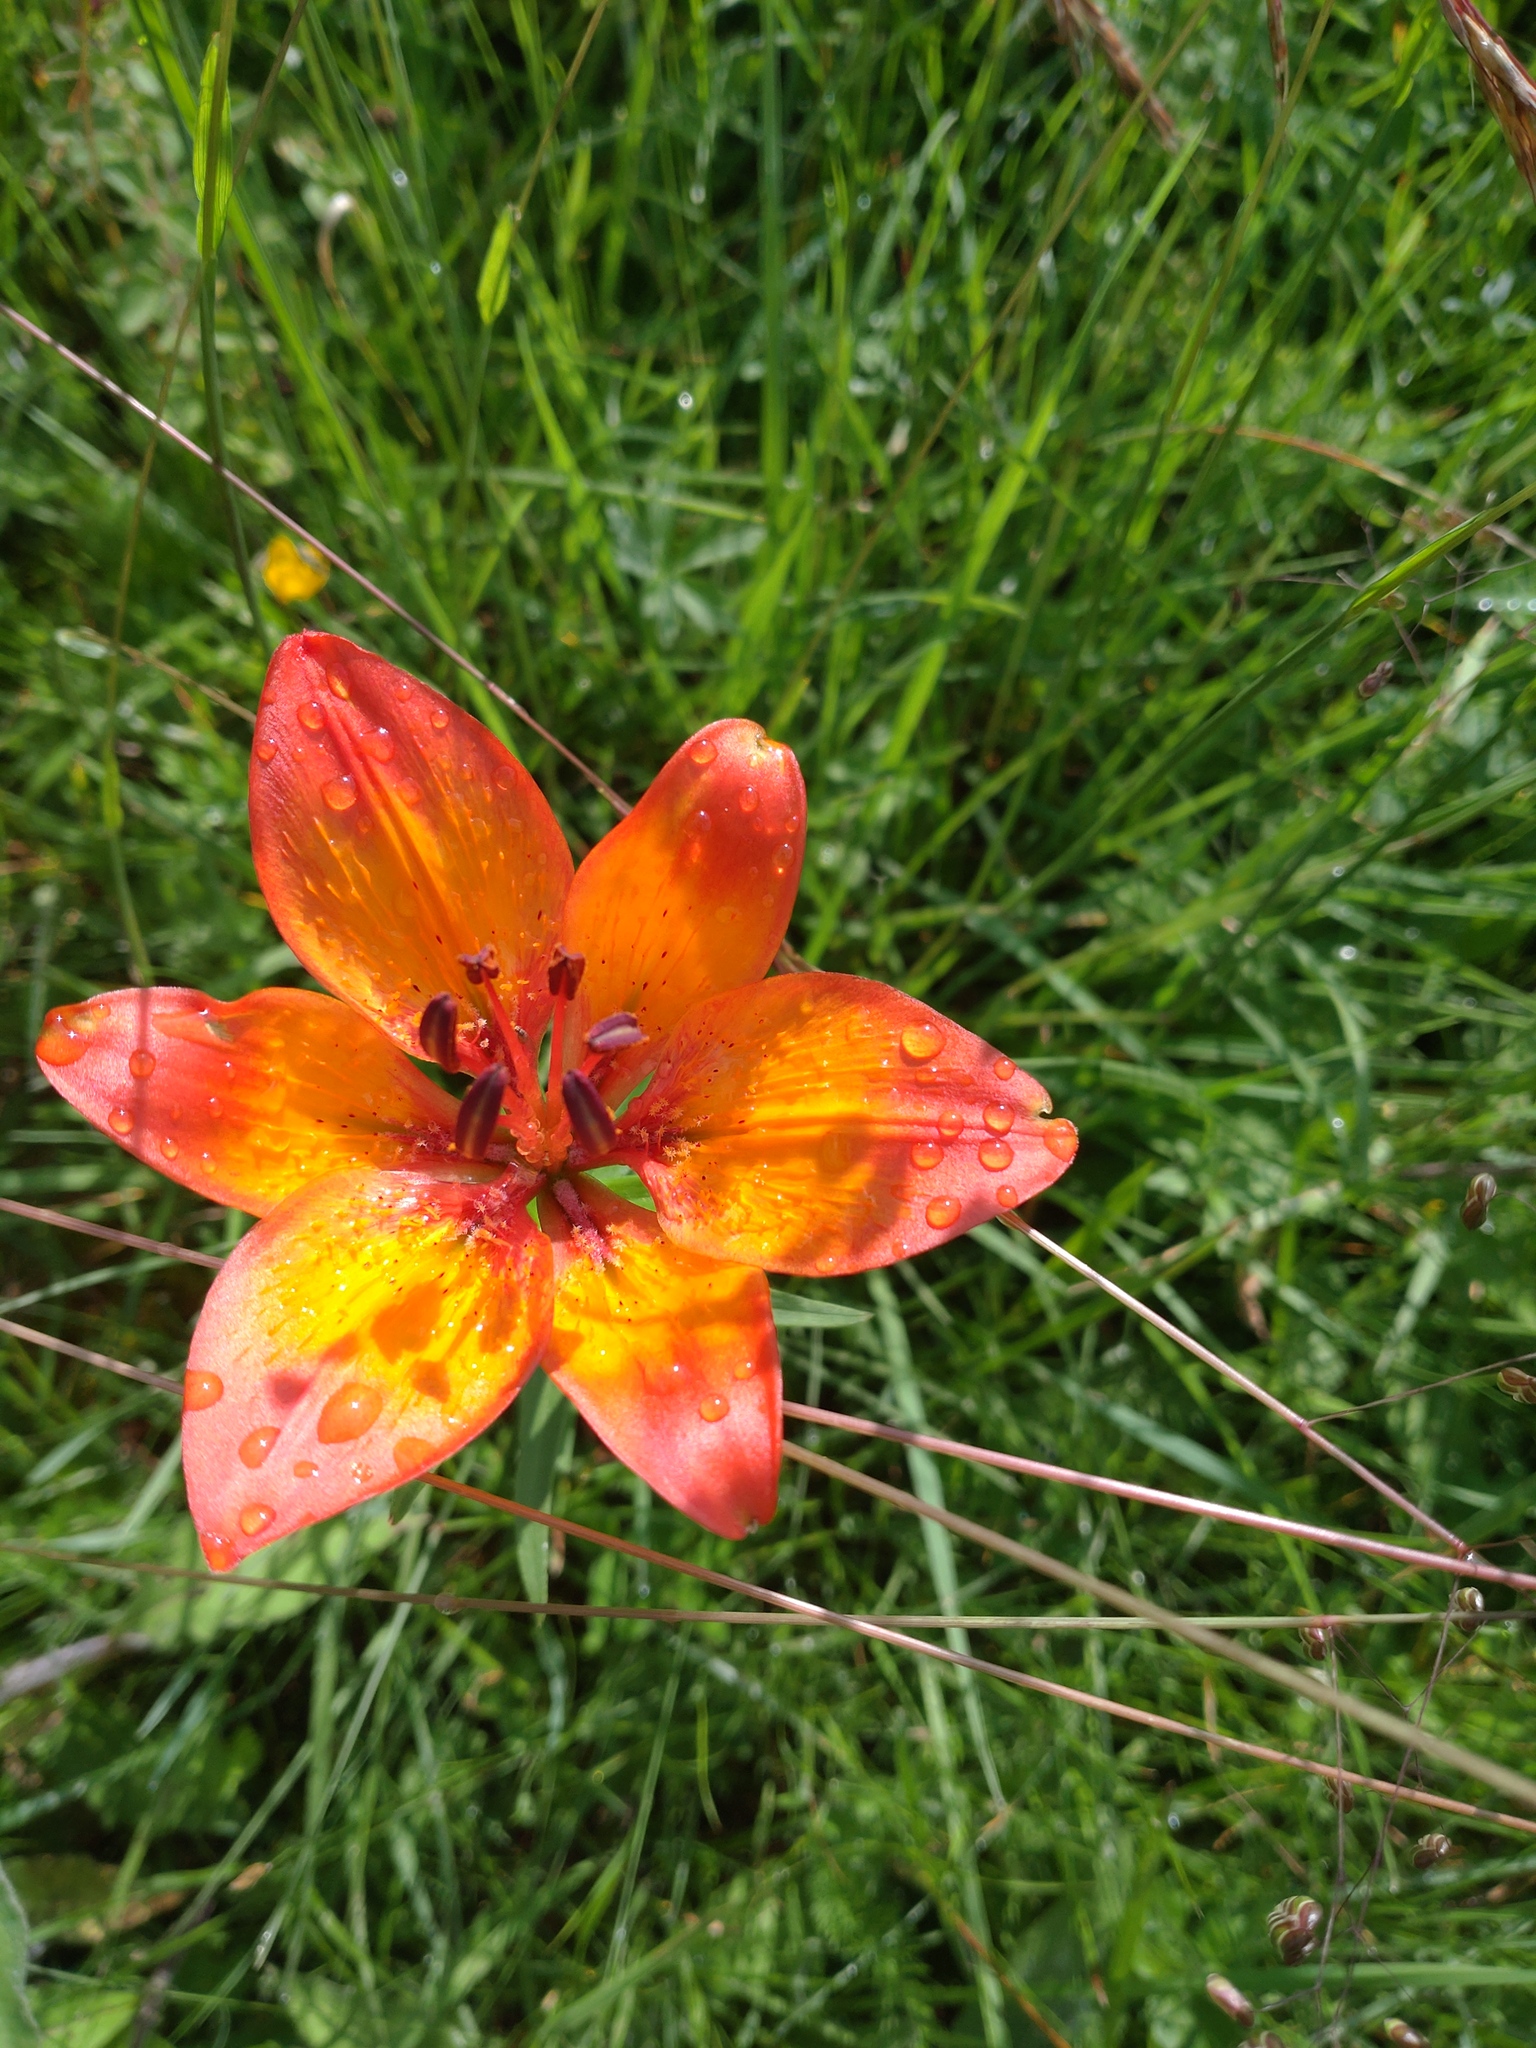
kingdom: Plantae
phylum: Tracheophyta
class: Liliopsida
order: Liliales
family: Liliaceae
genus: Lilium
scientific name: Lilium bulbiferum
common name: Orange lily
